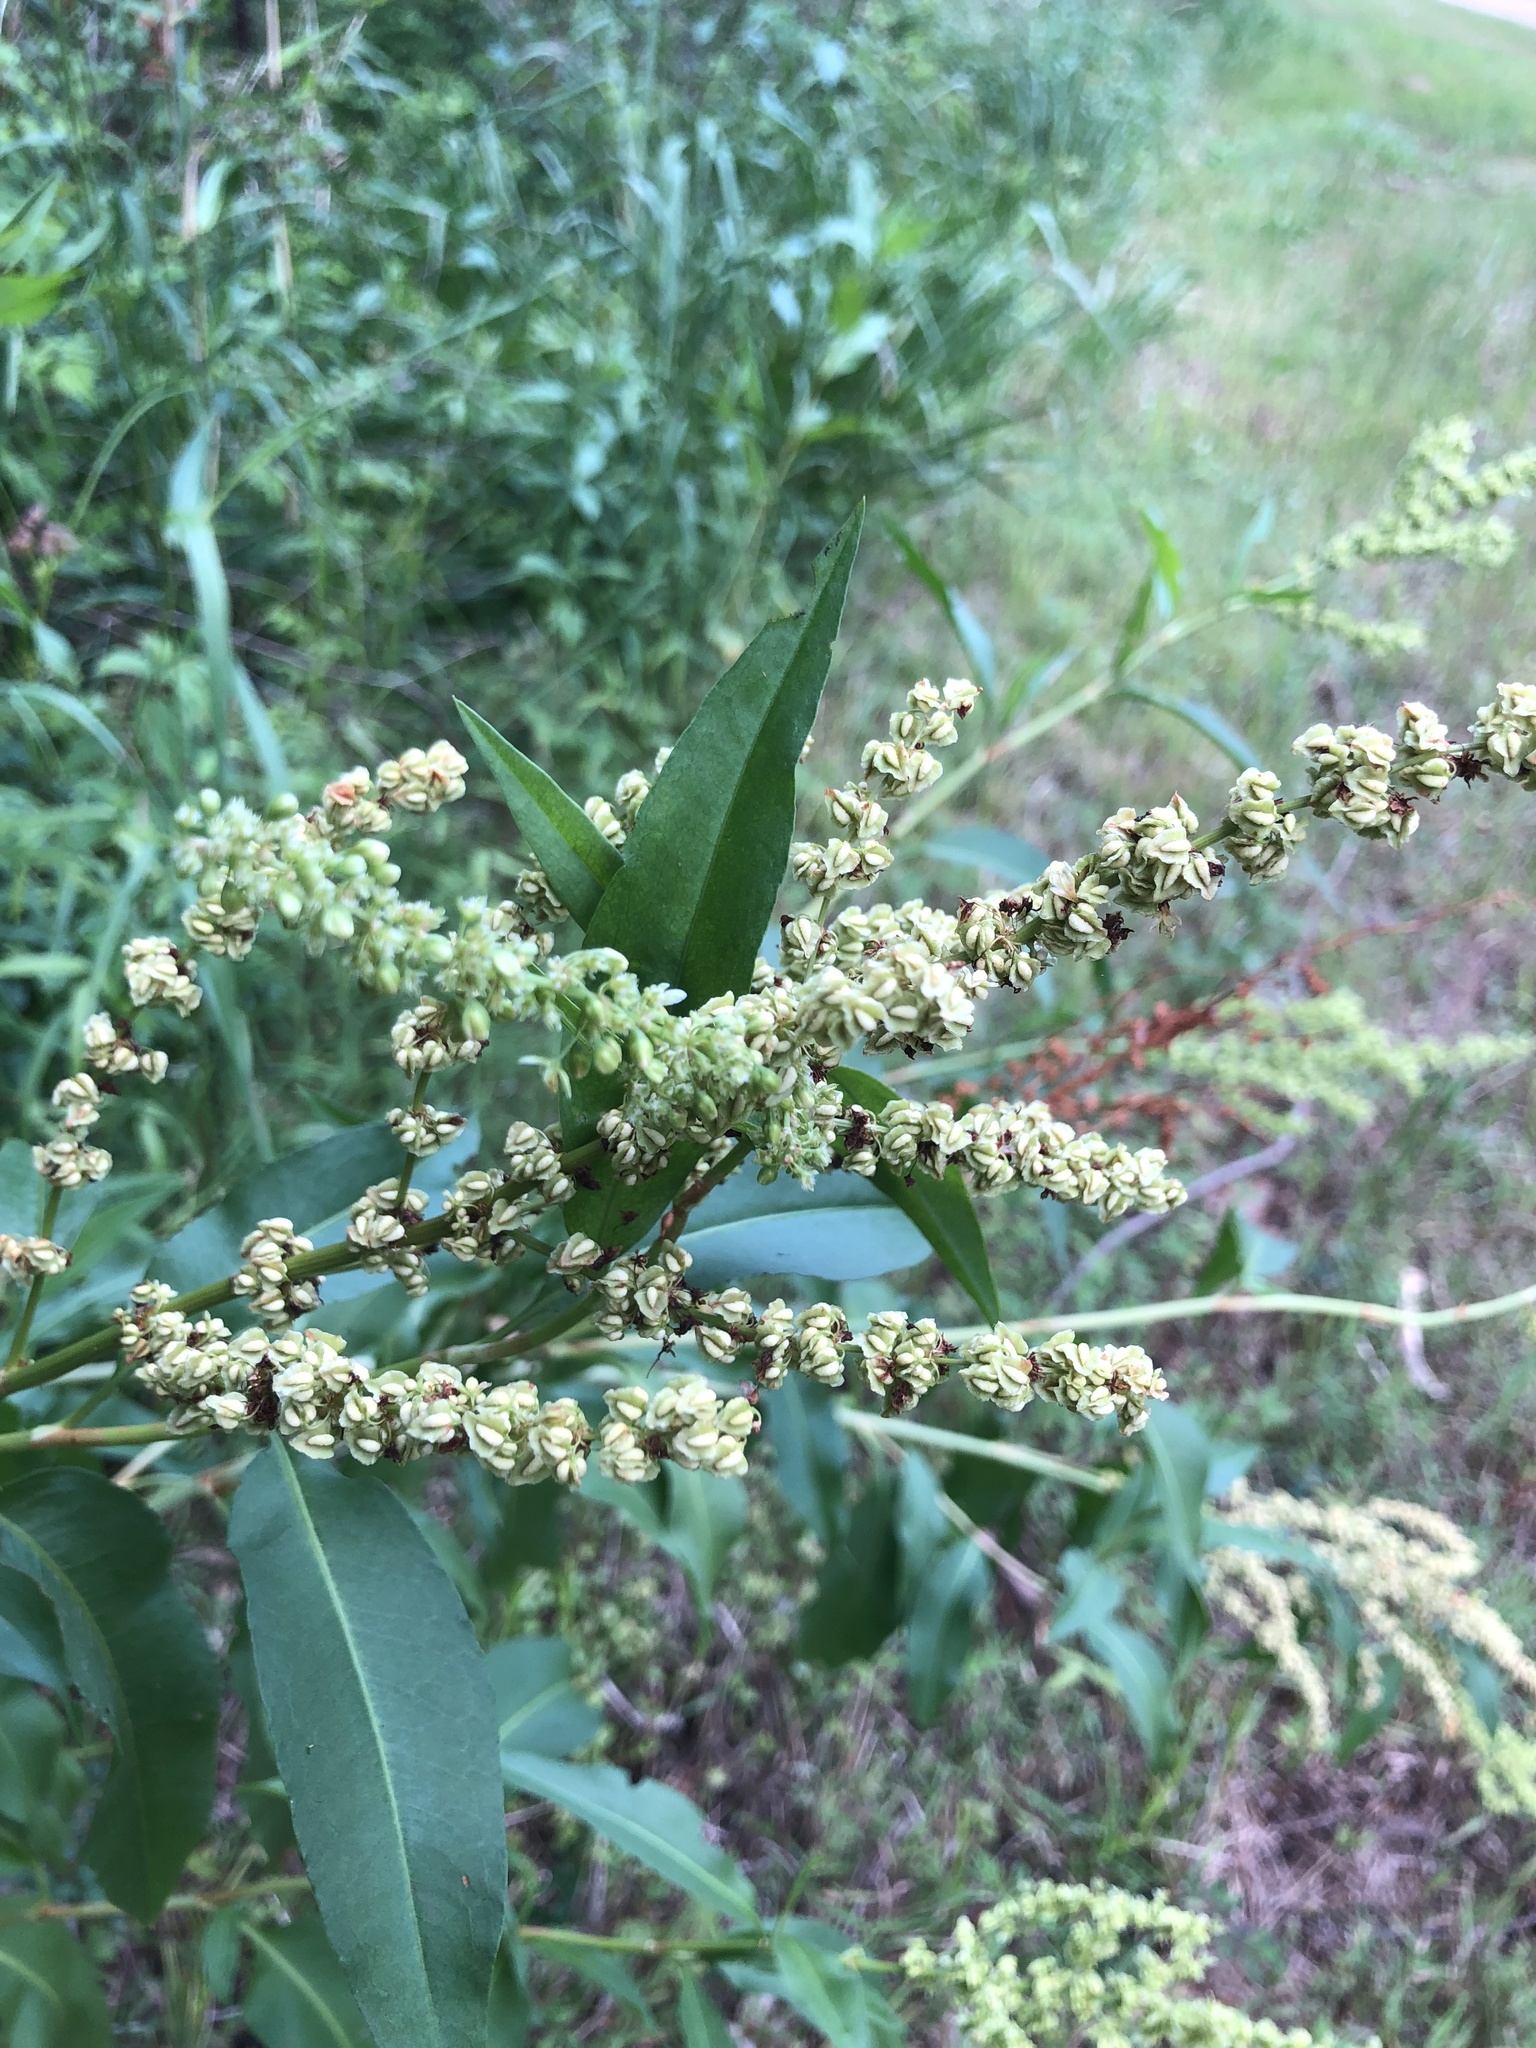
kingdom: Plantae
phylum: Tracheophyta
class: Magnoliopsida
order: Caryophyllales
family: Polygonaceae
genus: Rumex
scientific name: Rumex altissimus
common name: Smooth dock
